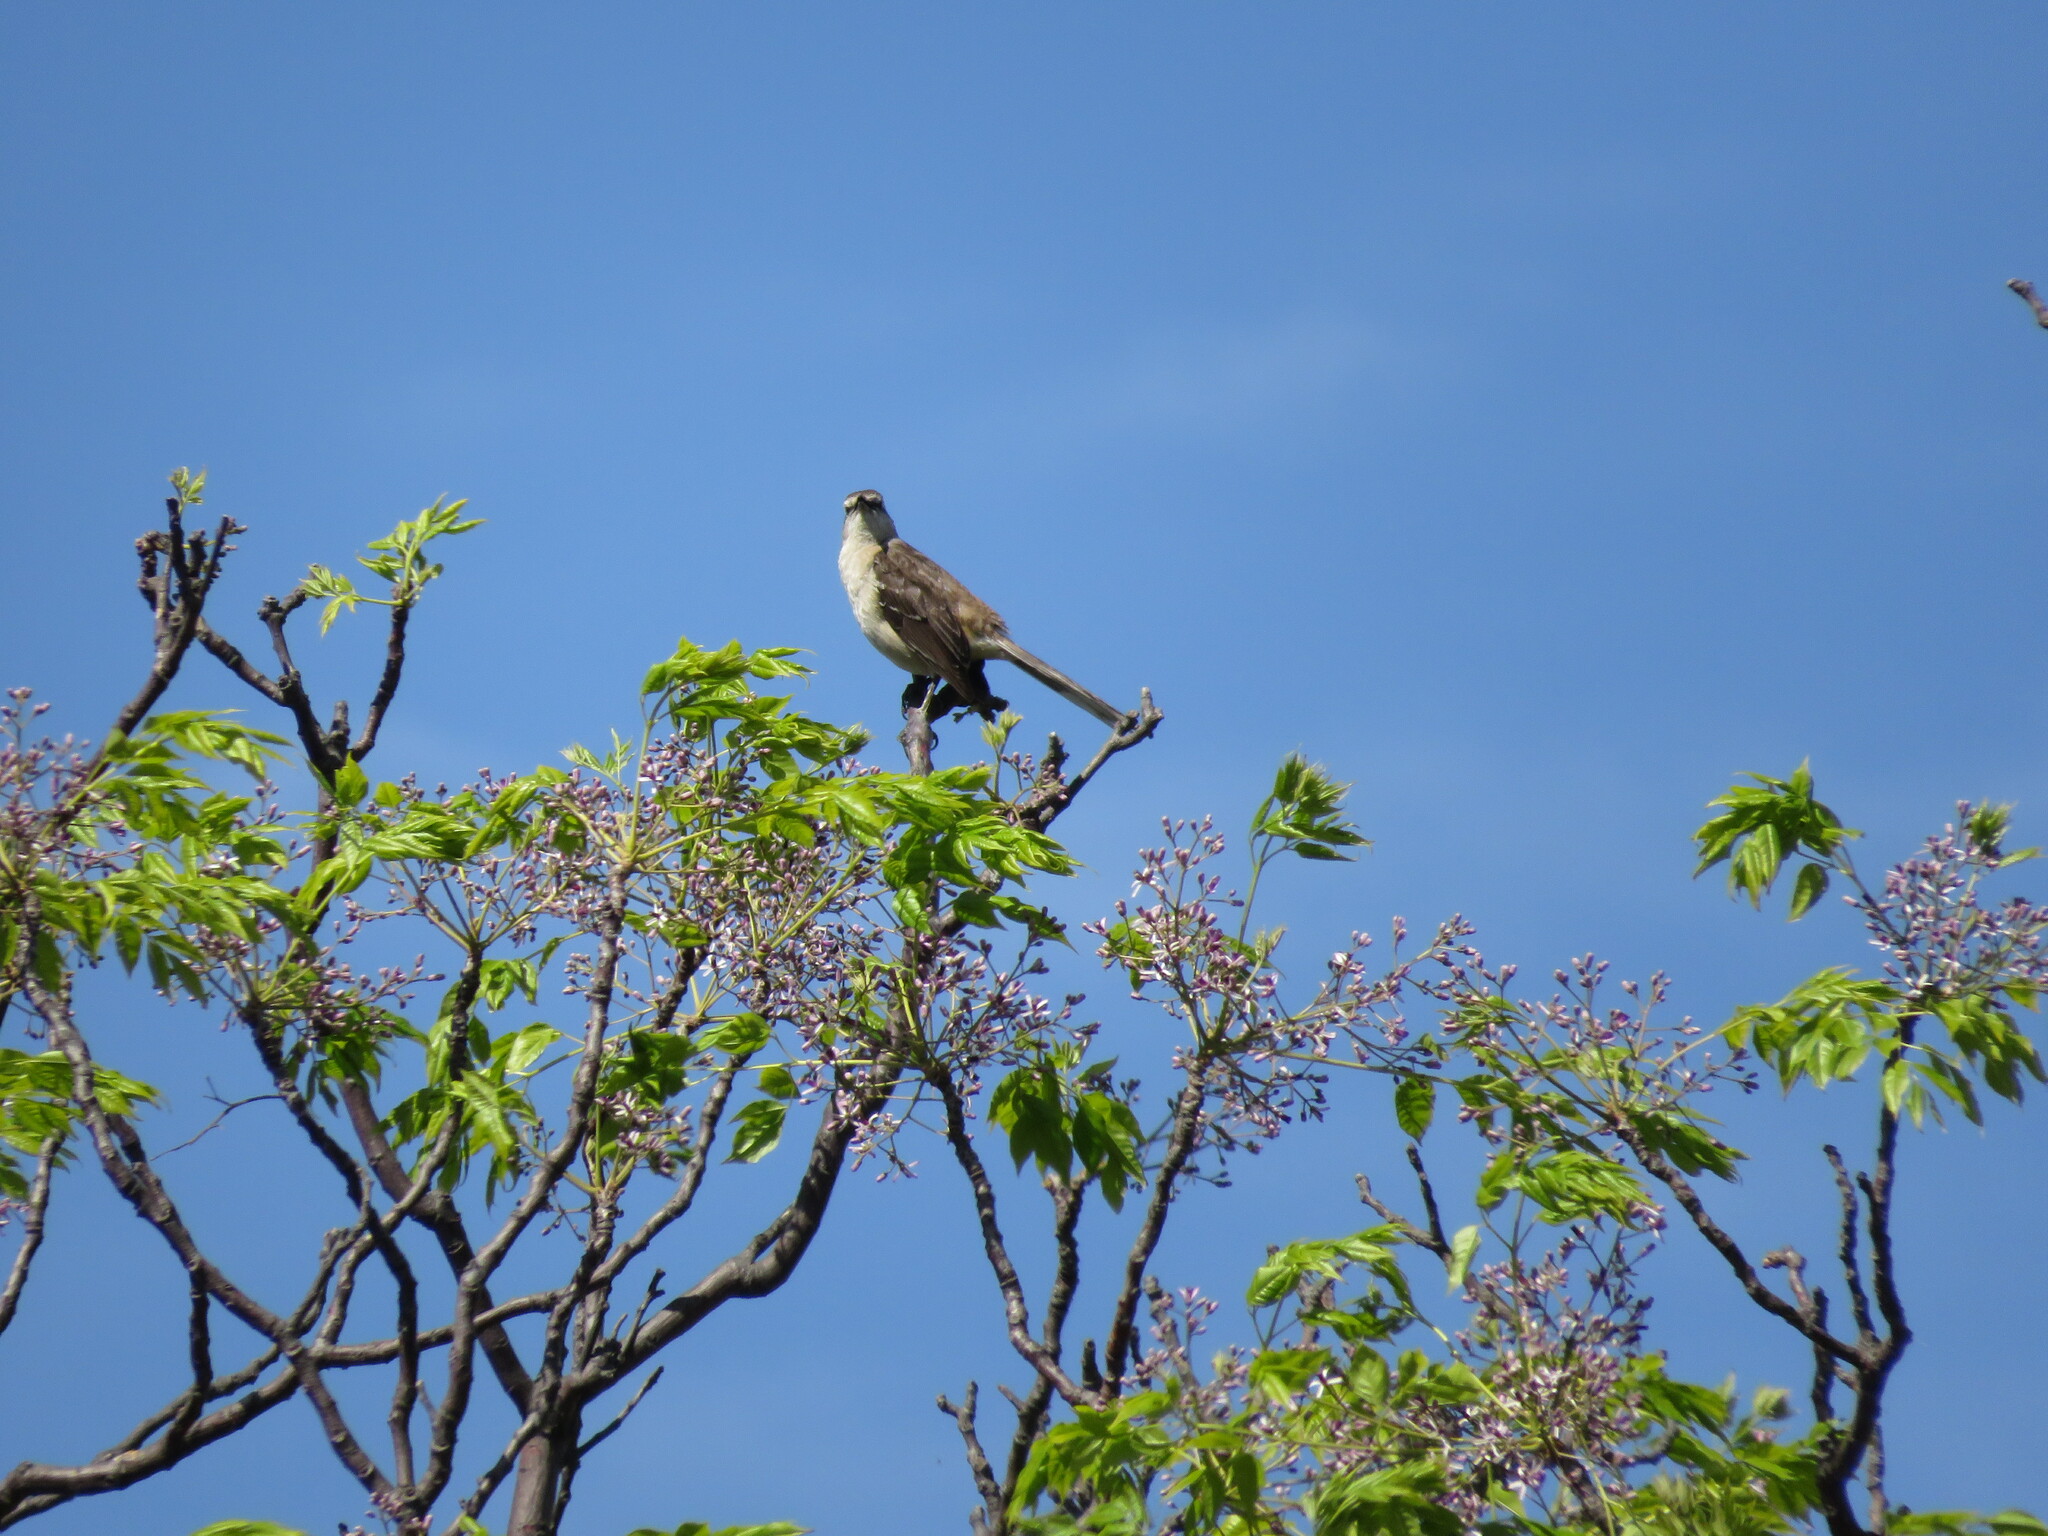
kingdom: Animalia
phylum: Chordata
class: Aves
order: Passeriformes
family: Mimidae
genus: Mimus
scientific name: Mimus saturninus
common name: Chalk-browed mockingbird
